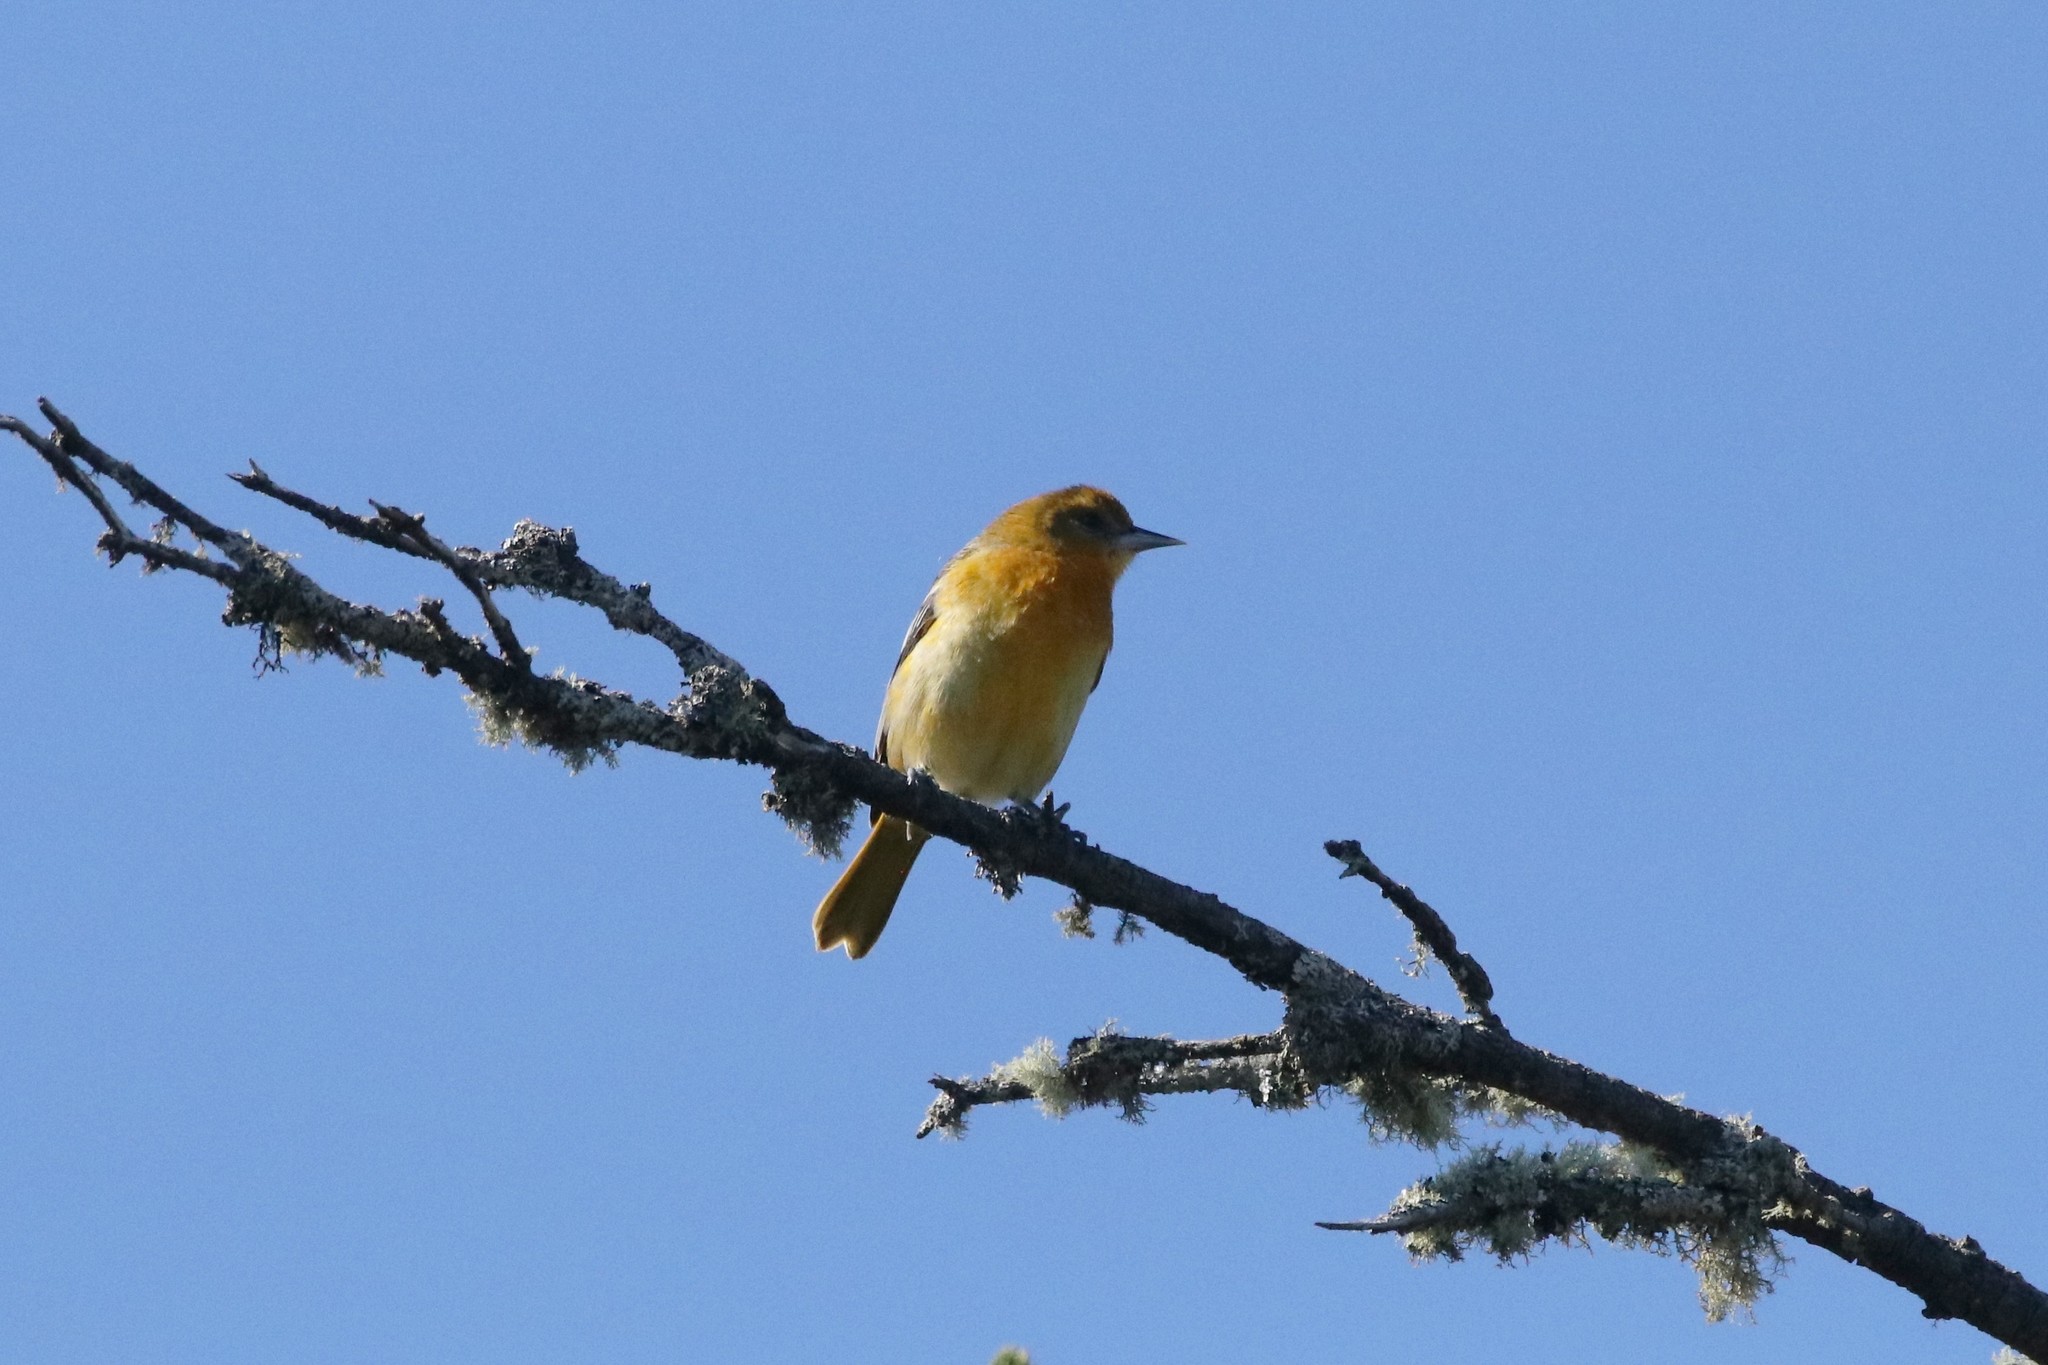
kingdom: Animalia
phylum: Chordata
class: Aves
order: Passeriformes
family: Icteridae
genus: Icterus
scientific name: Icterus galbula
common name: Baltimore oriole
